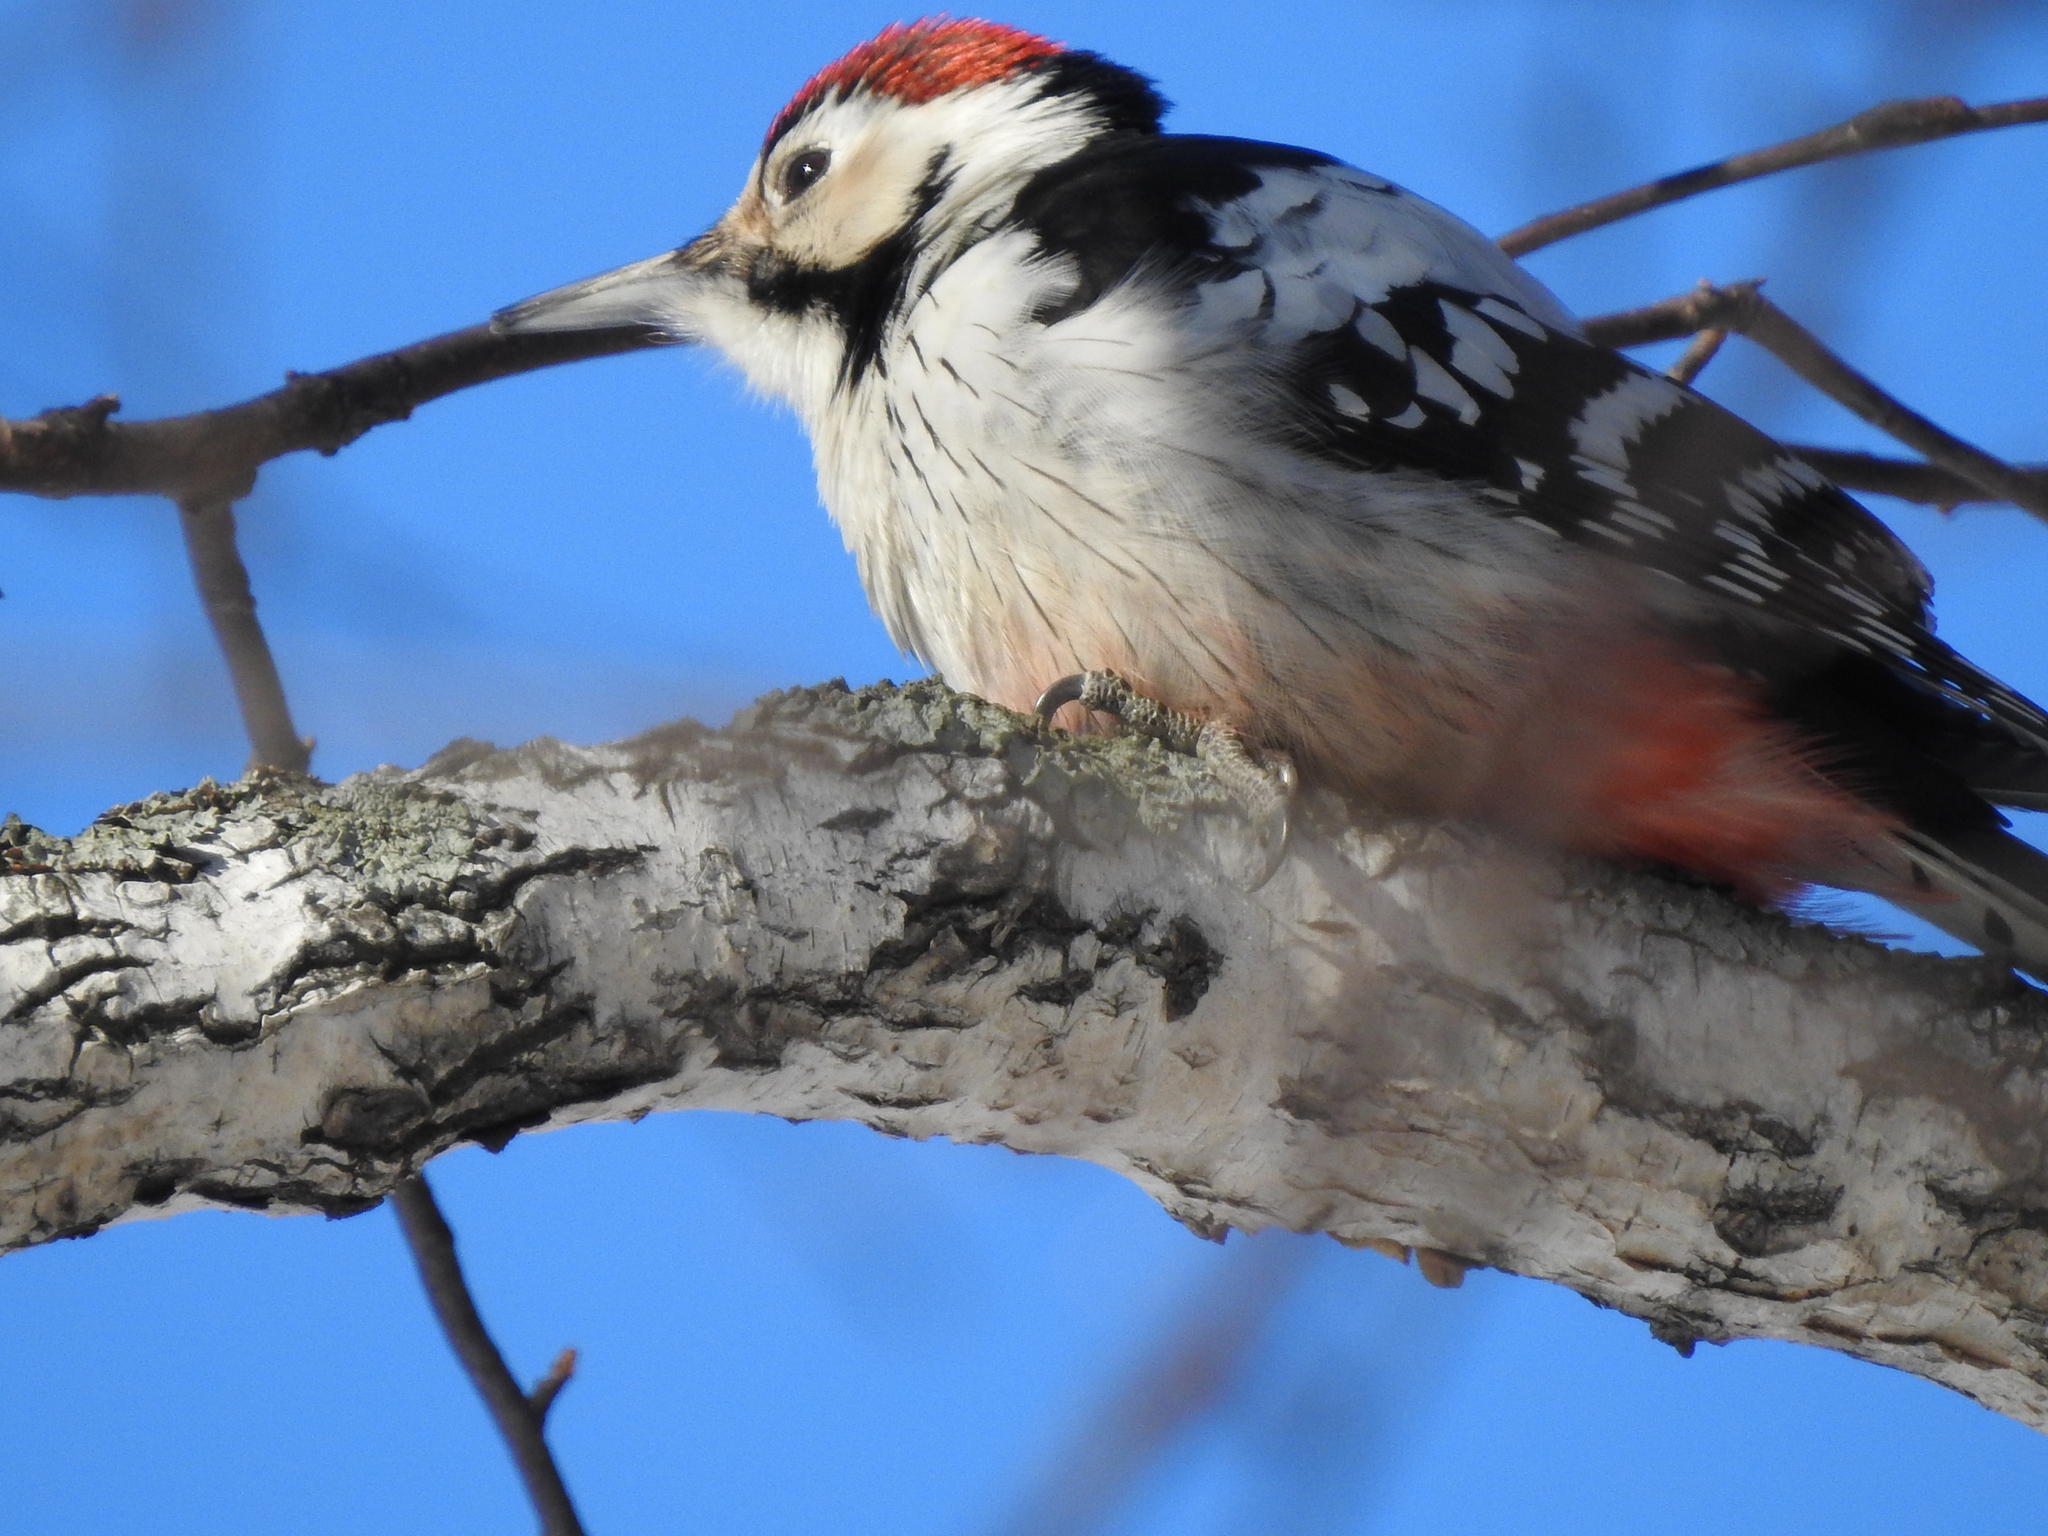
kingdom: Animalia
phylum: Chordata
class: Aves
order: Piciformes
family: Picidae
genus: Dendrocopos
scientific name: Dendrocopos leucotos
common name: White-backed woodpecker
